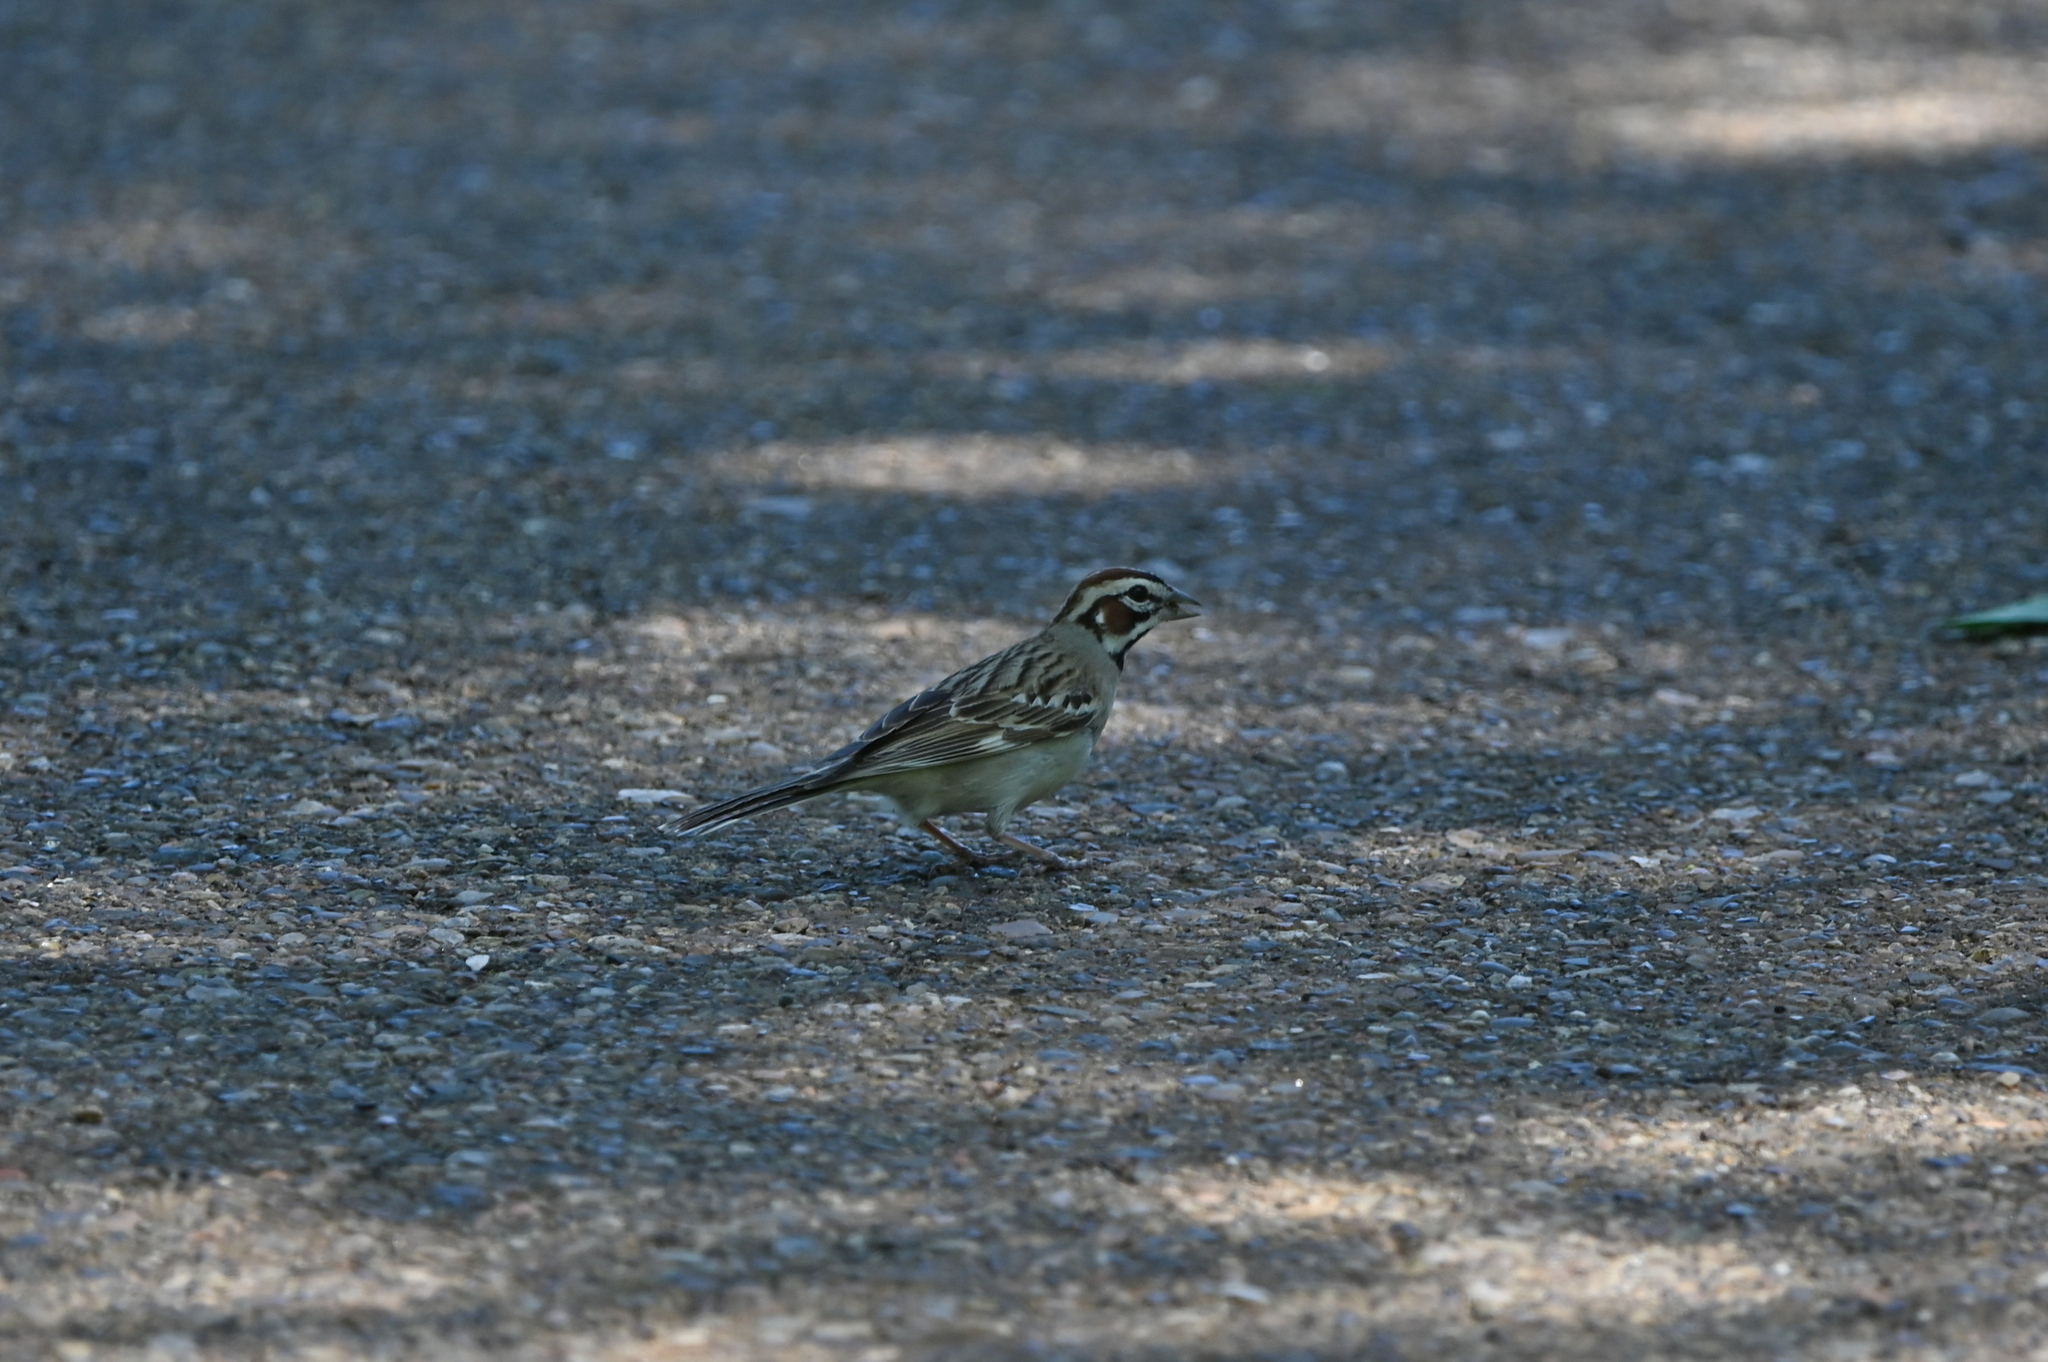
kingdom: Animalia
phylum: Chordata
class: Aves
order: Passeriformes
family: Passerellidae
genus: Chondestes
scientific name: Chondestes grammacus
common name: Lark sparrow
